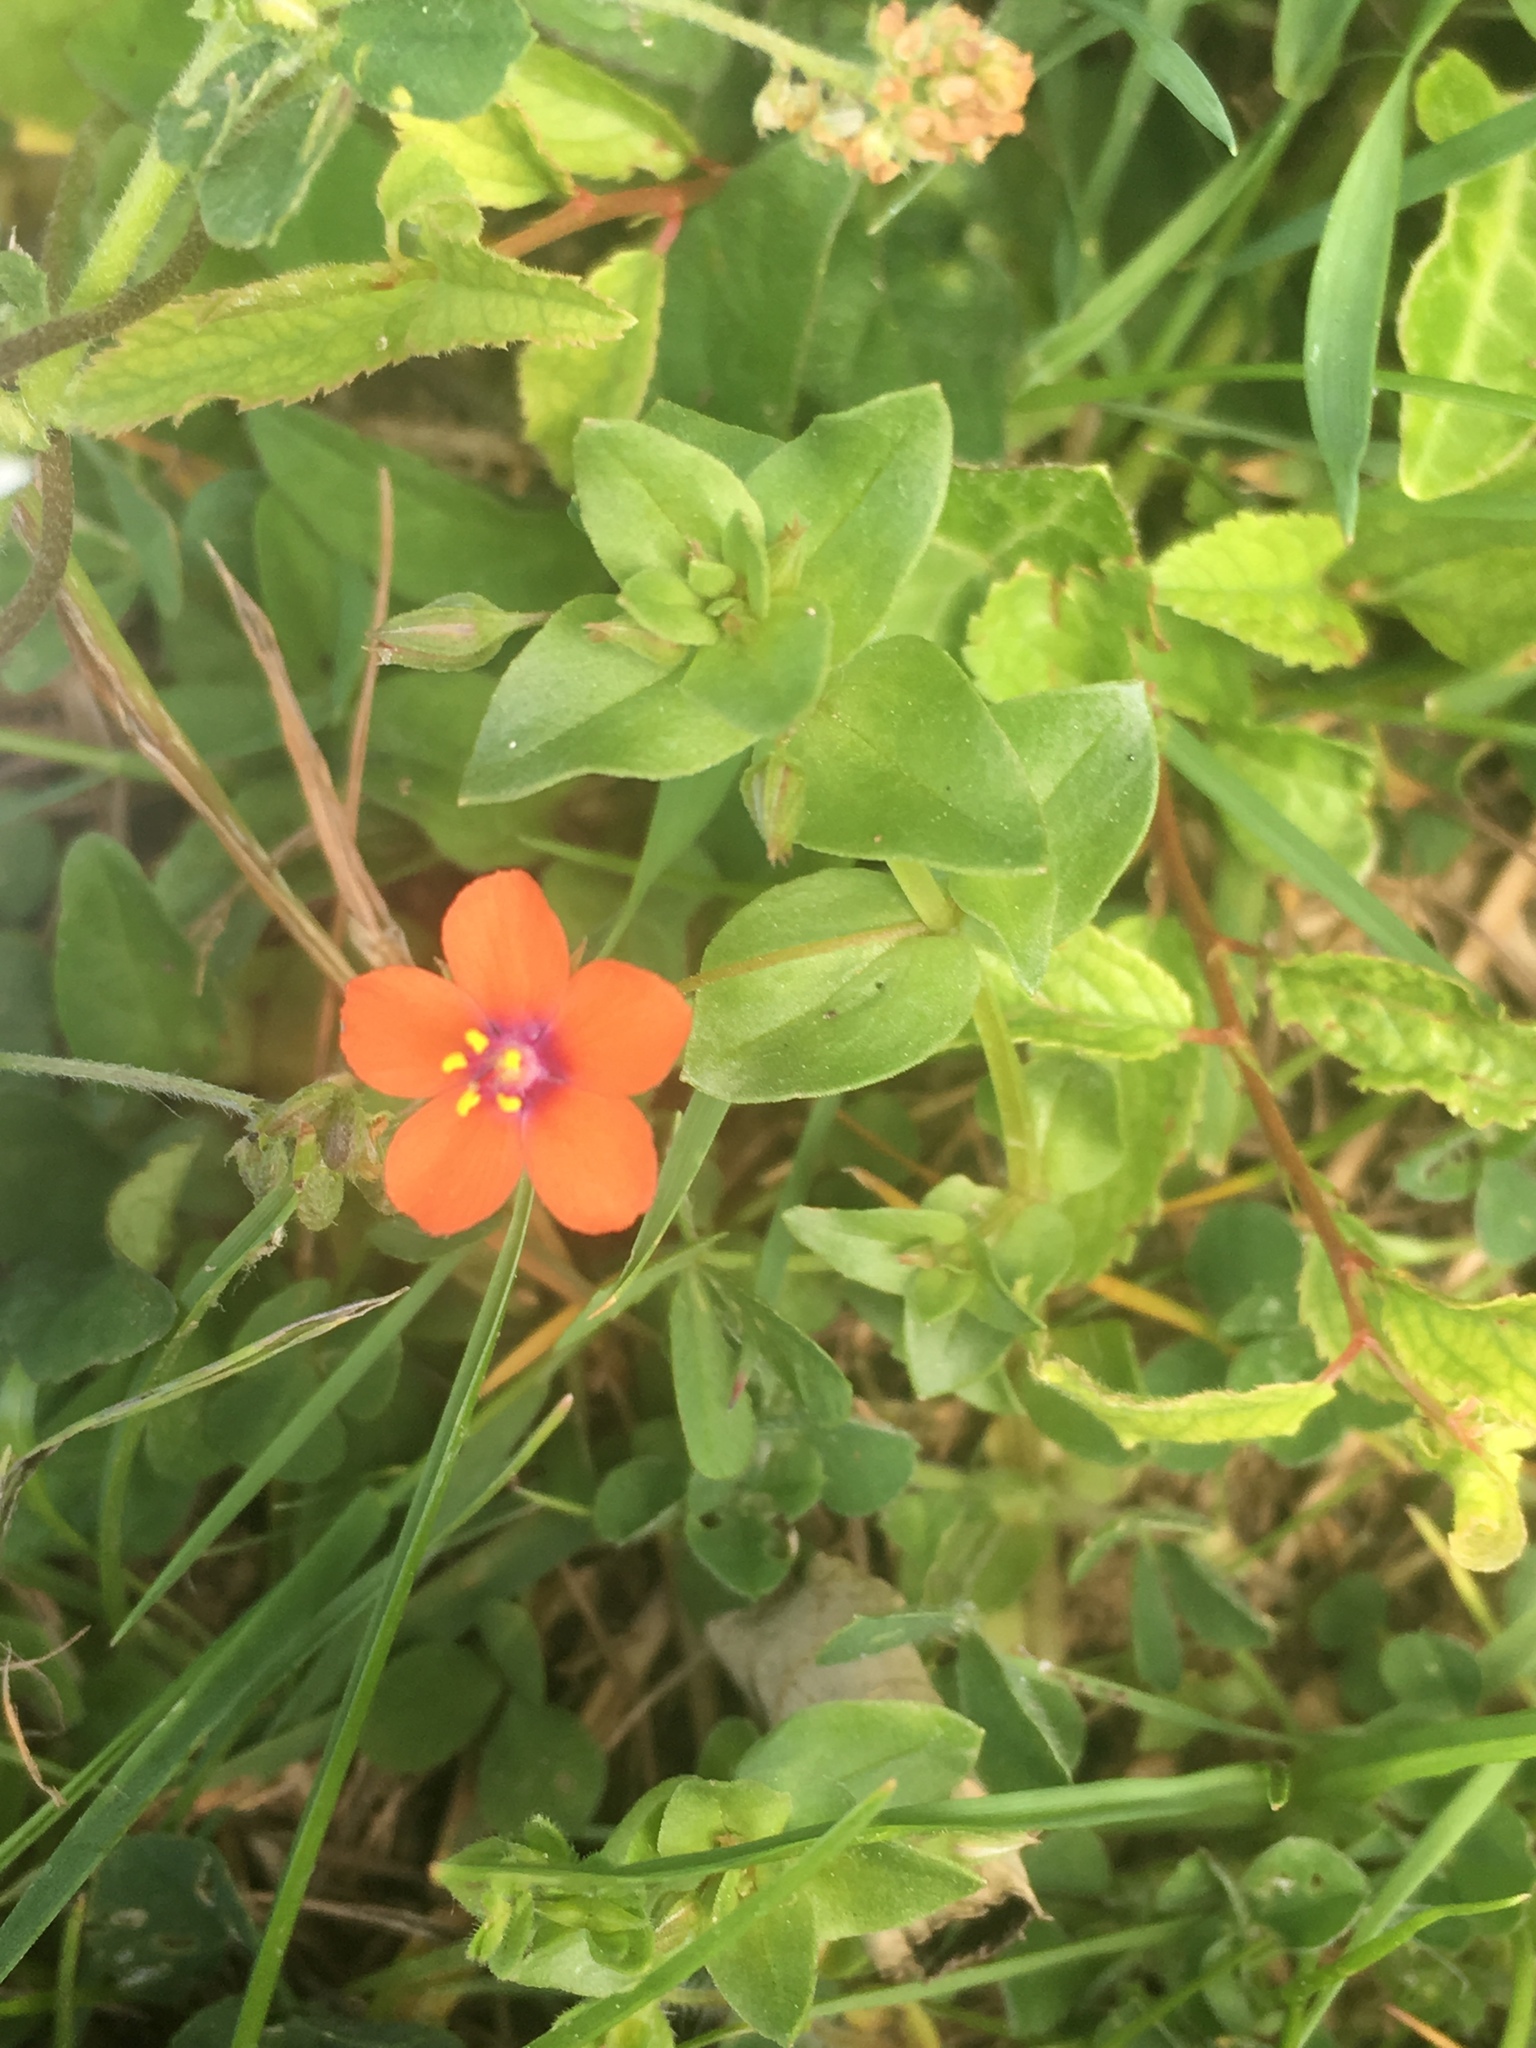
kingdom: Plantae
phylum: Tracheophyta
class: Magnoliopsida
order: Ericales
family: Primulaceae
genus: Lysimachia
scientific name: Lysimachia arvensis
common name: Scarlet pimpernel
